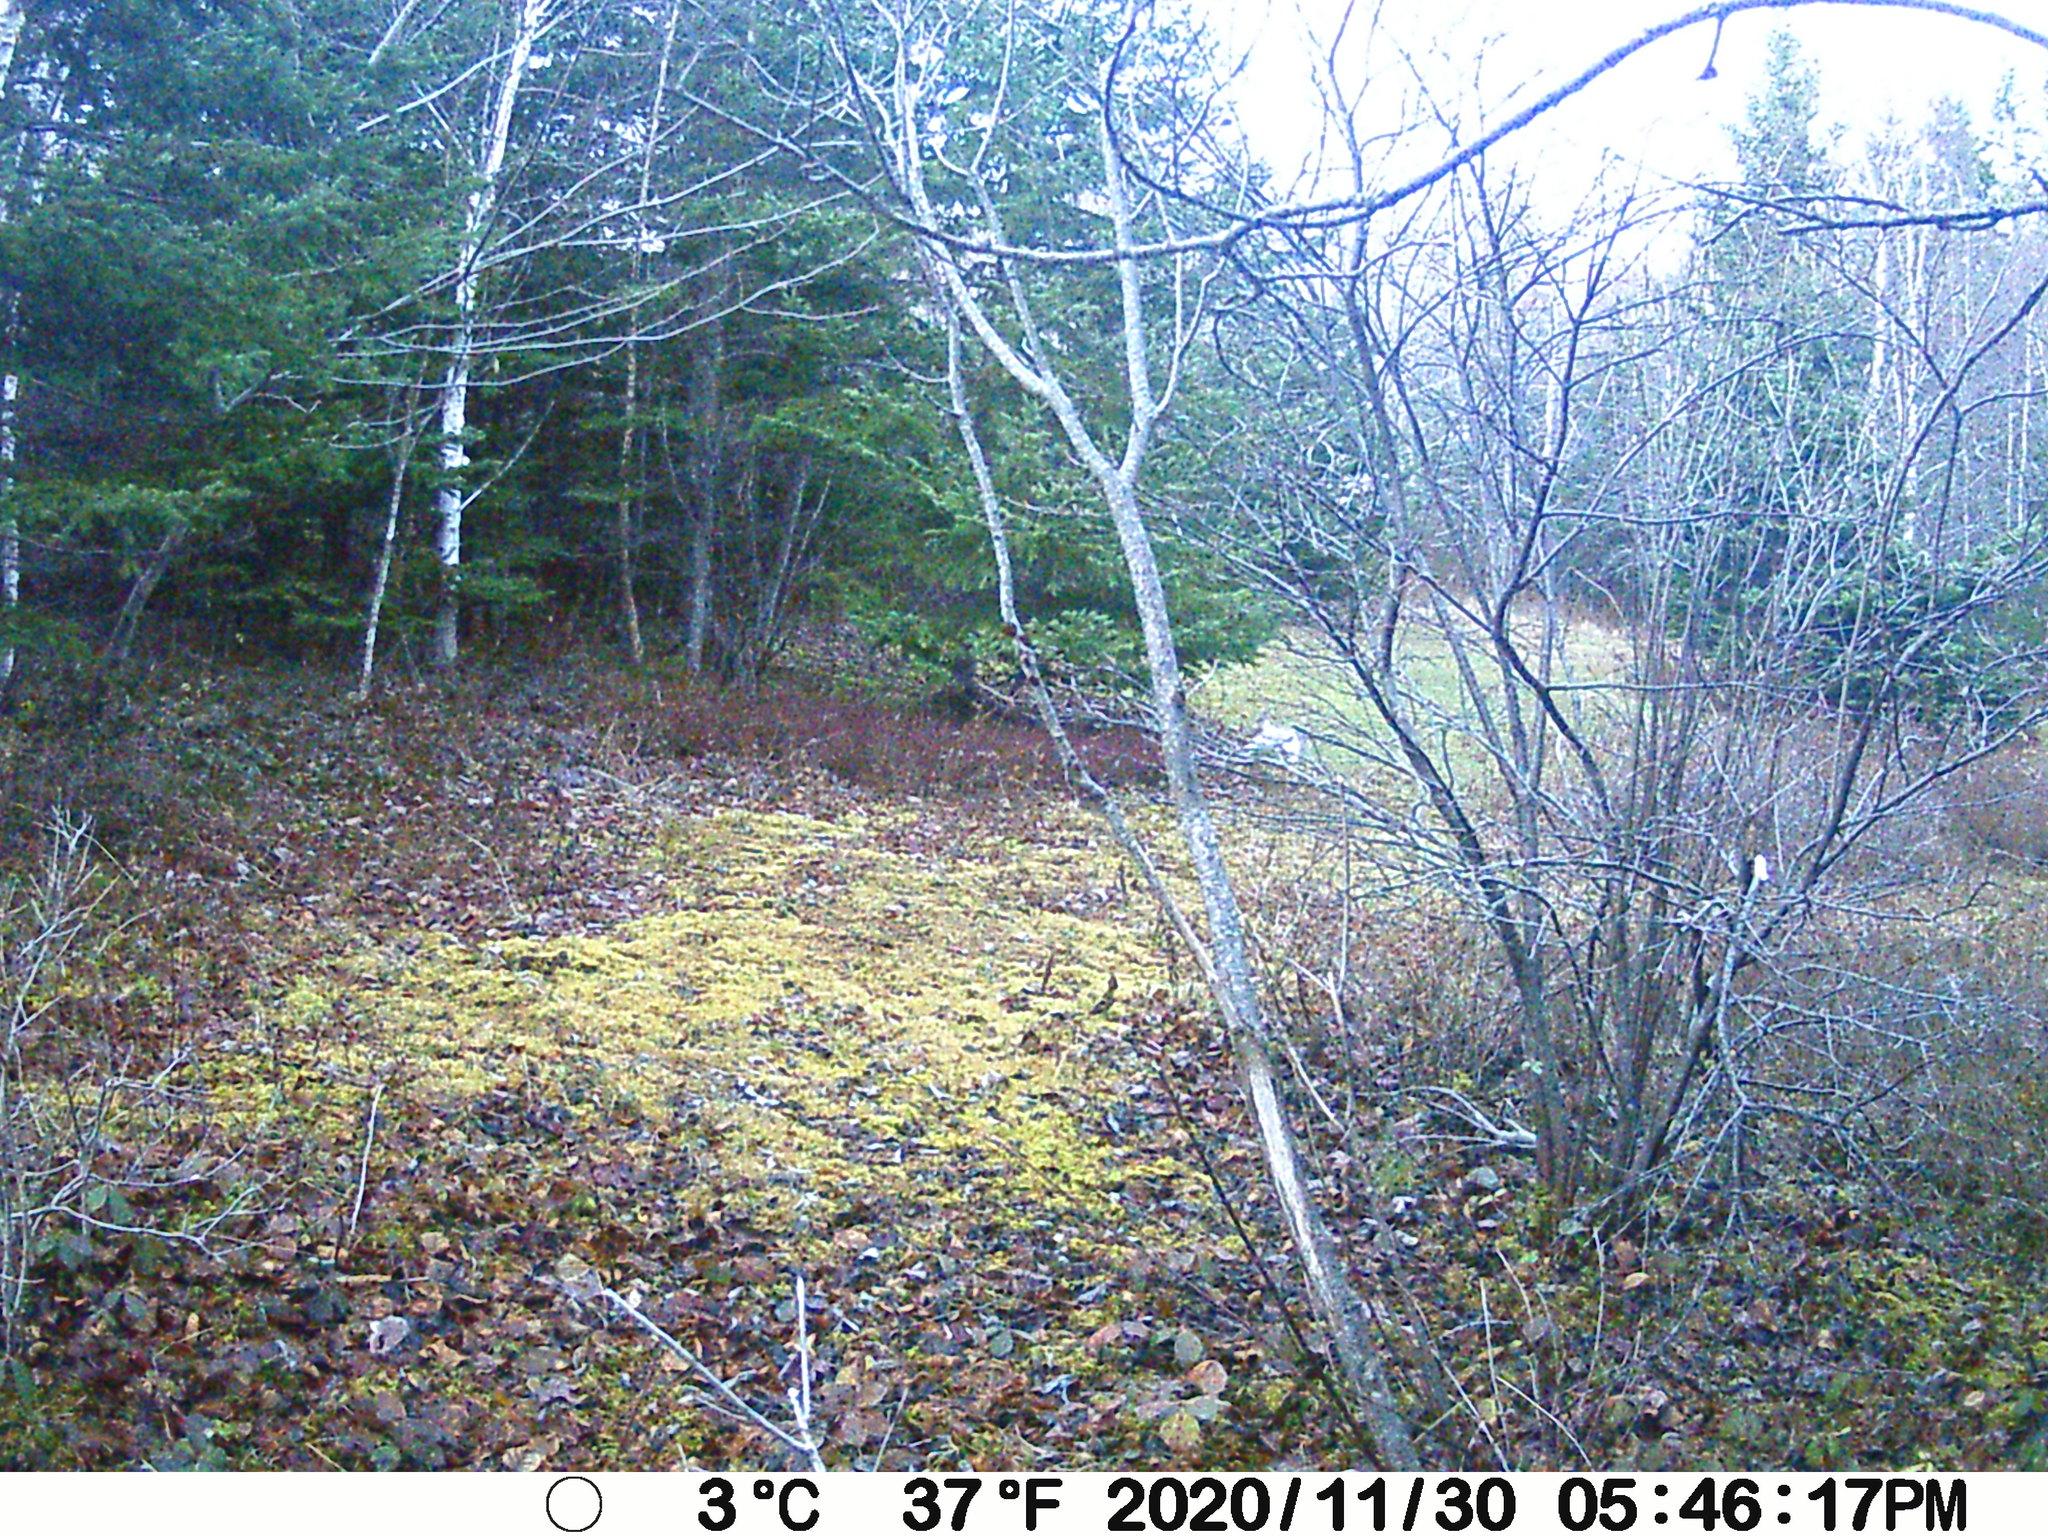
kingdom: Animalia
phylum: Chordata
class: Mammalia
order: Lagomorpha
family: Leporidae
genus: Lepus
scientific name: Lepus americanus
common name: Snowshoe hare
